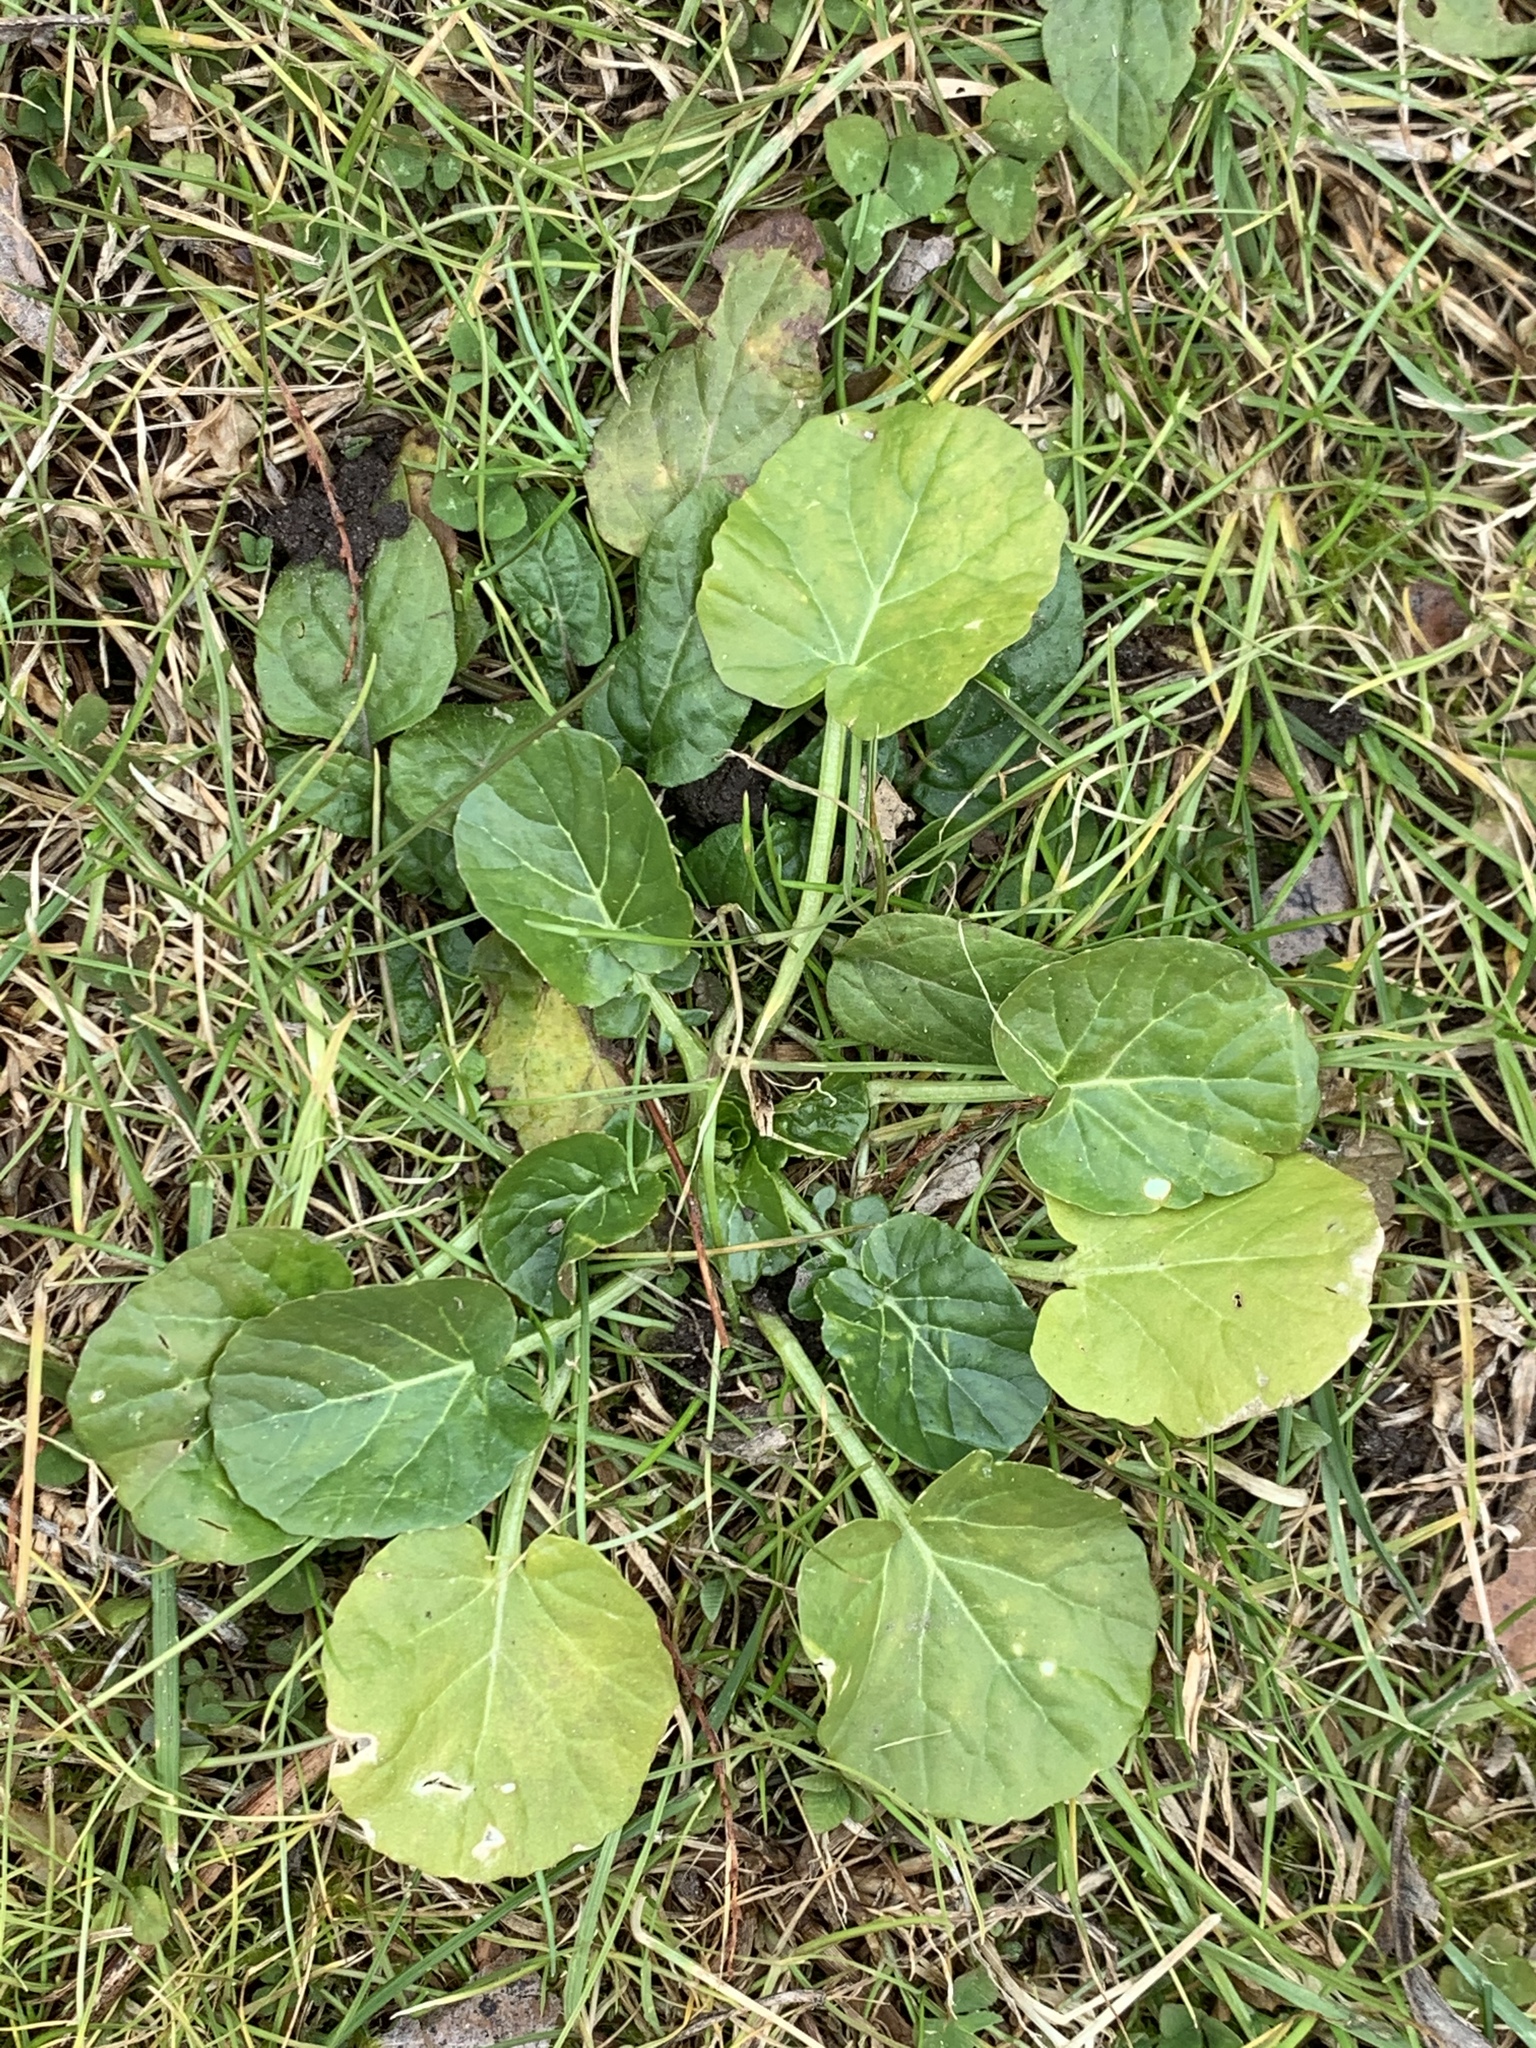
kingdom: Plantae
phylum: Tracheophyta
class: Magnoliopsida
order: Brassicales
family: Brassicaceae
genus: Barbarea
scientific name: Barbarea vulgaris
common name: Cressy-greens
